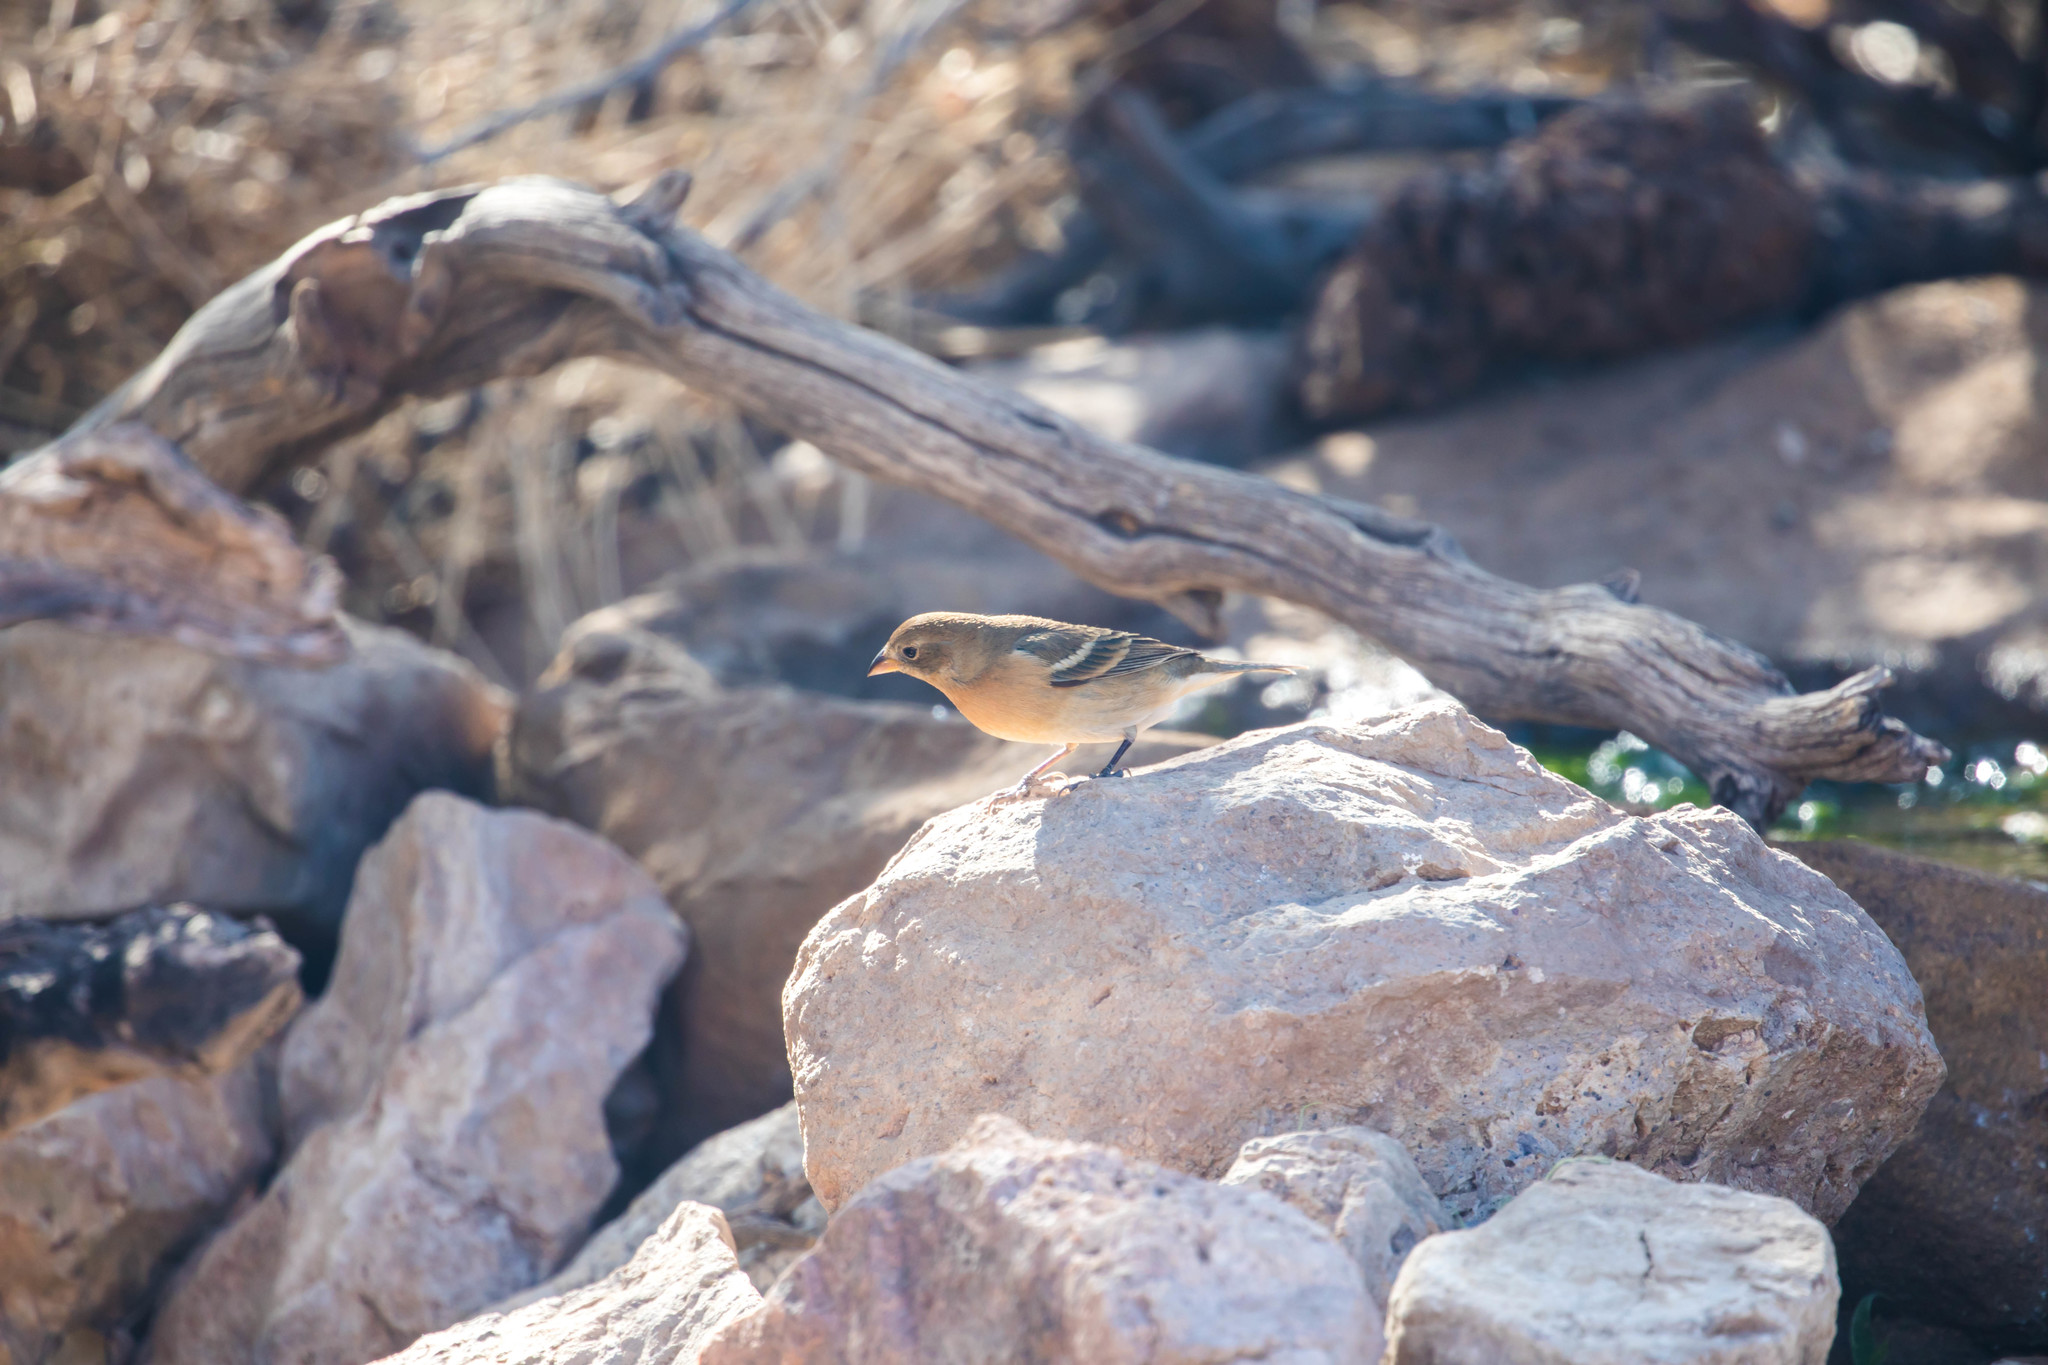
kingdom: Animalia
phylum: Chordata
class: Aves
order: Passeriformes
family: Cardinalidae
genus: Passerina
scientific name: Passerina amoena
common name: Lazuli bunting
